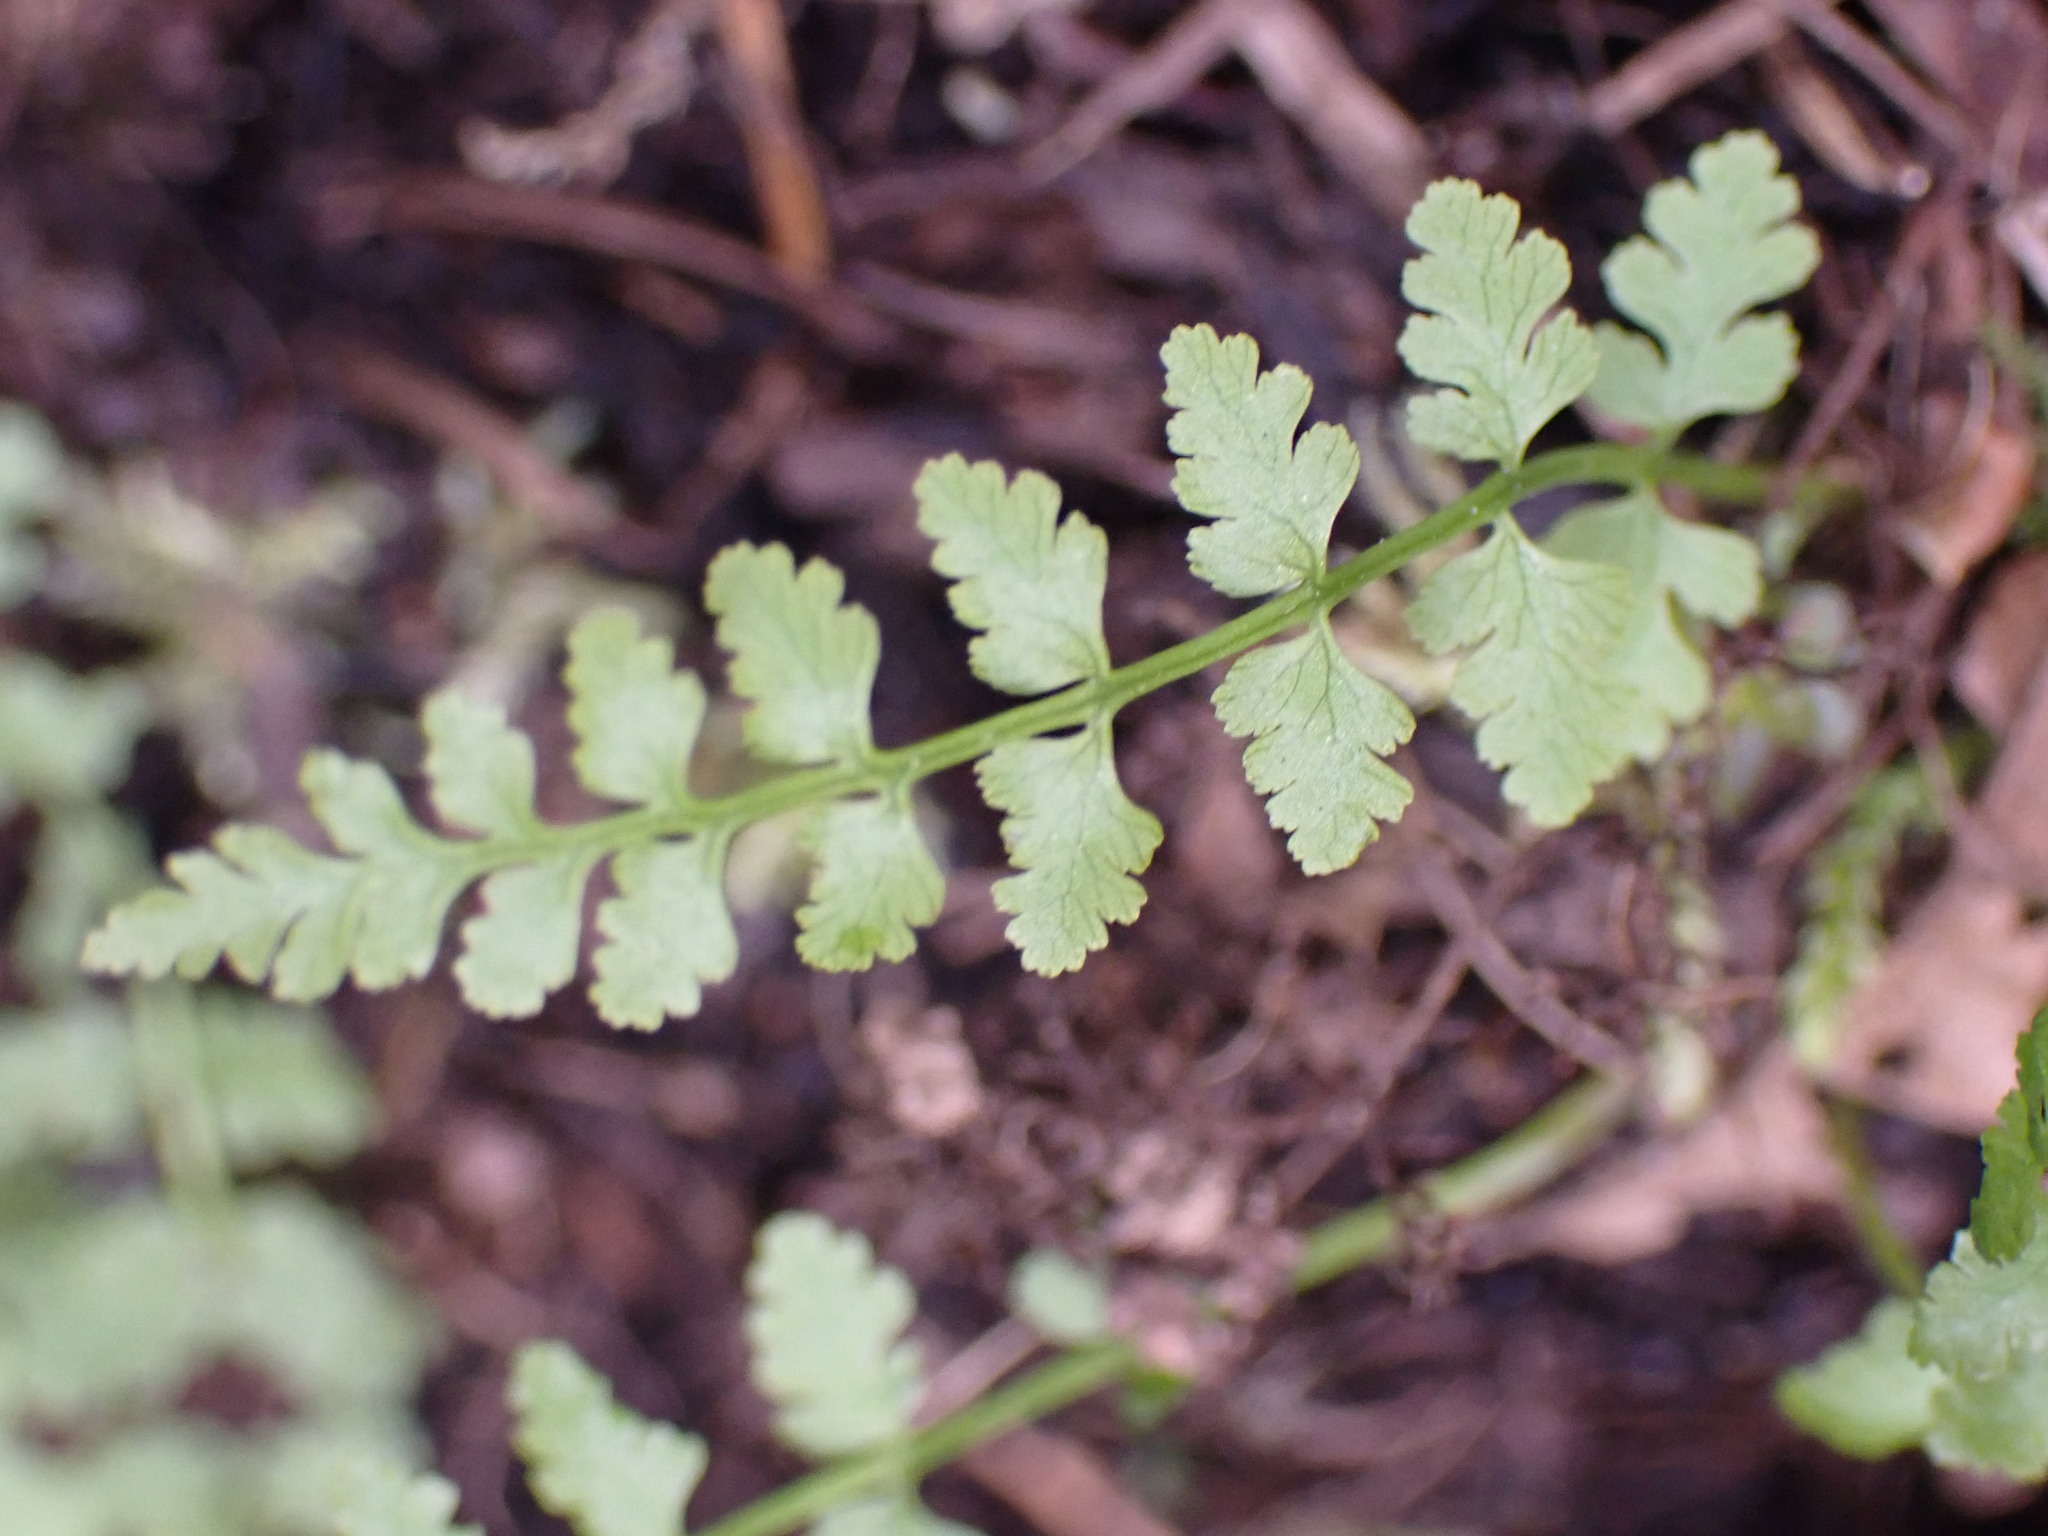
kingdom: Plantae
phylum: Tracheophyta
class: Polypodiopsida
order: Polypodiales
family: Cystopteridaceae
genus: Cystopteris
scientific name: Cystopteris fragilis
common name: Brittle bladder fern
